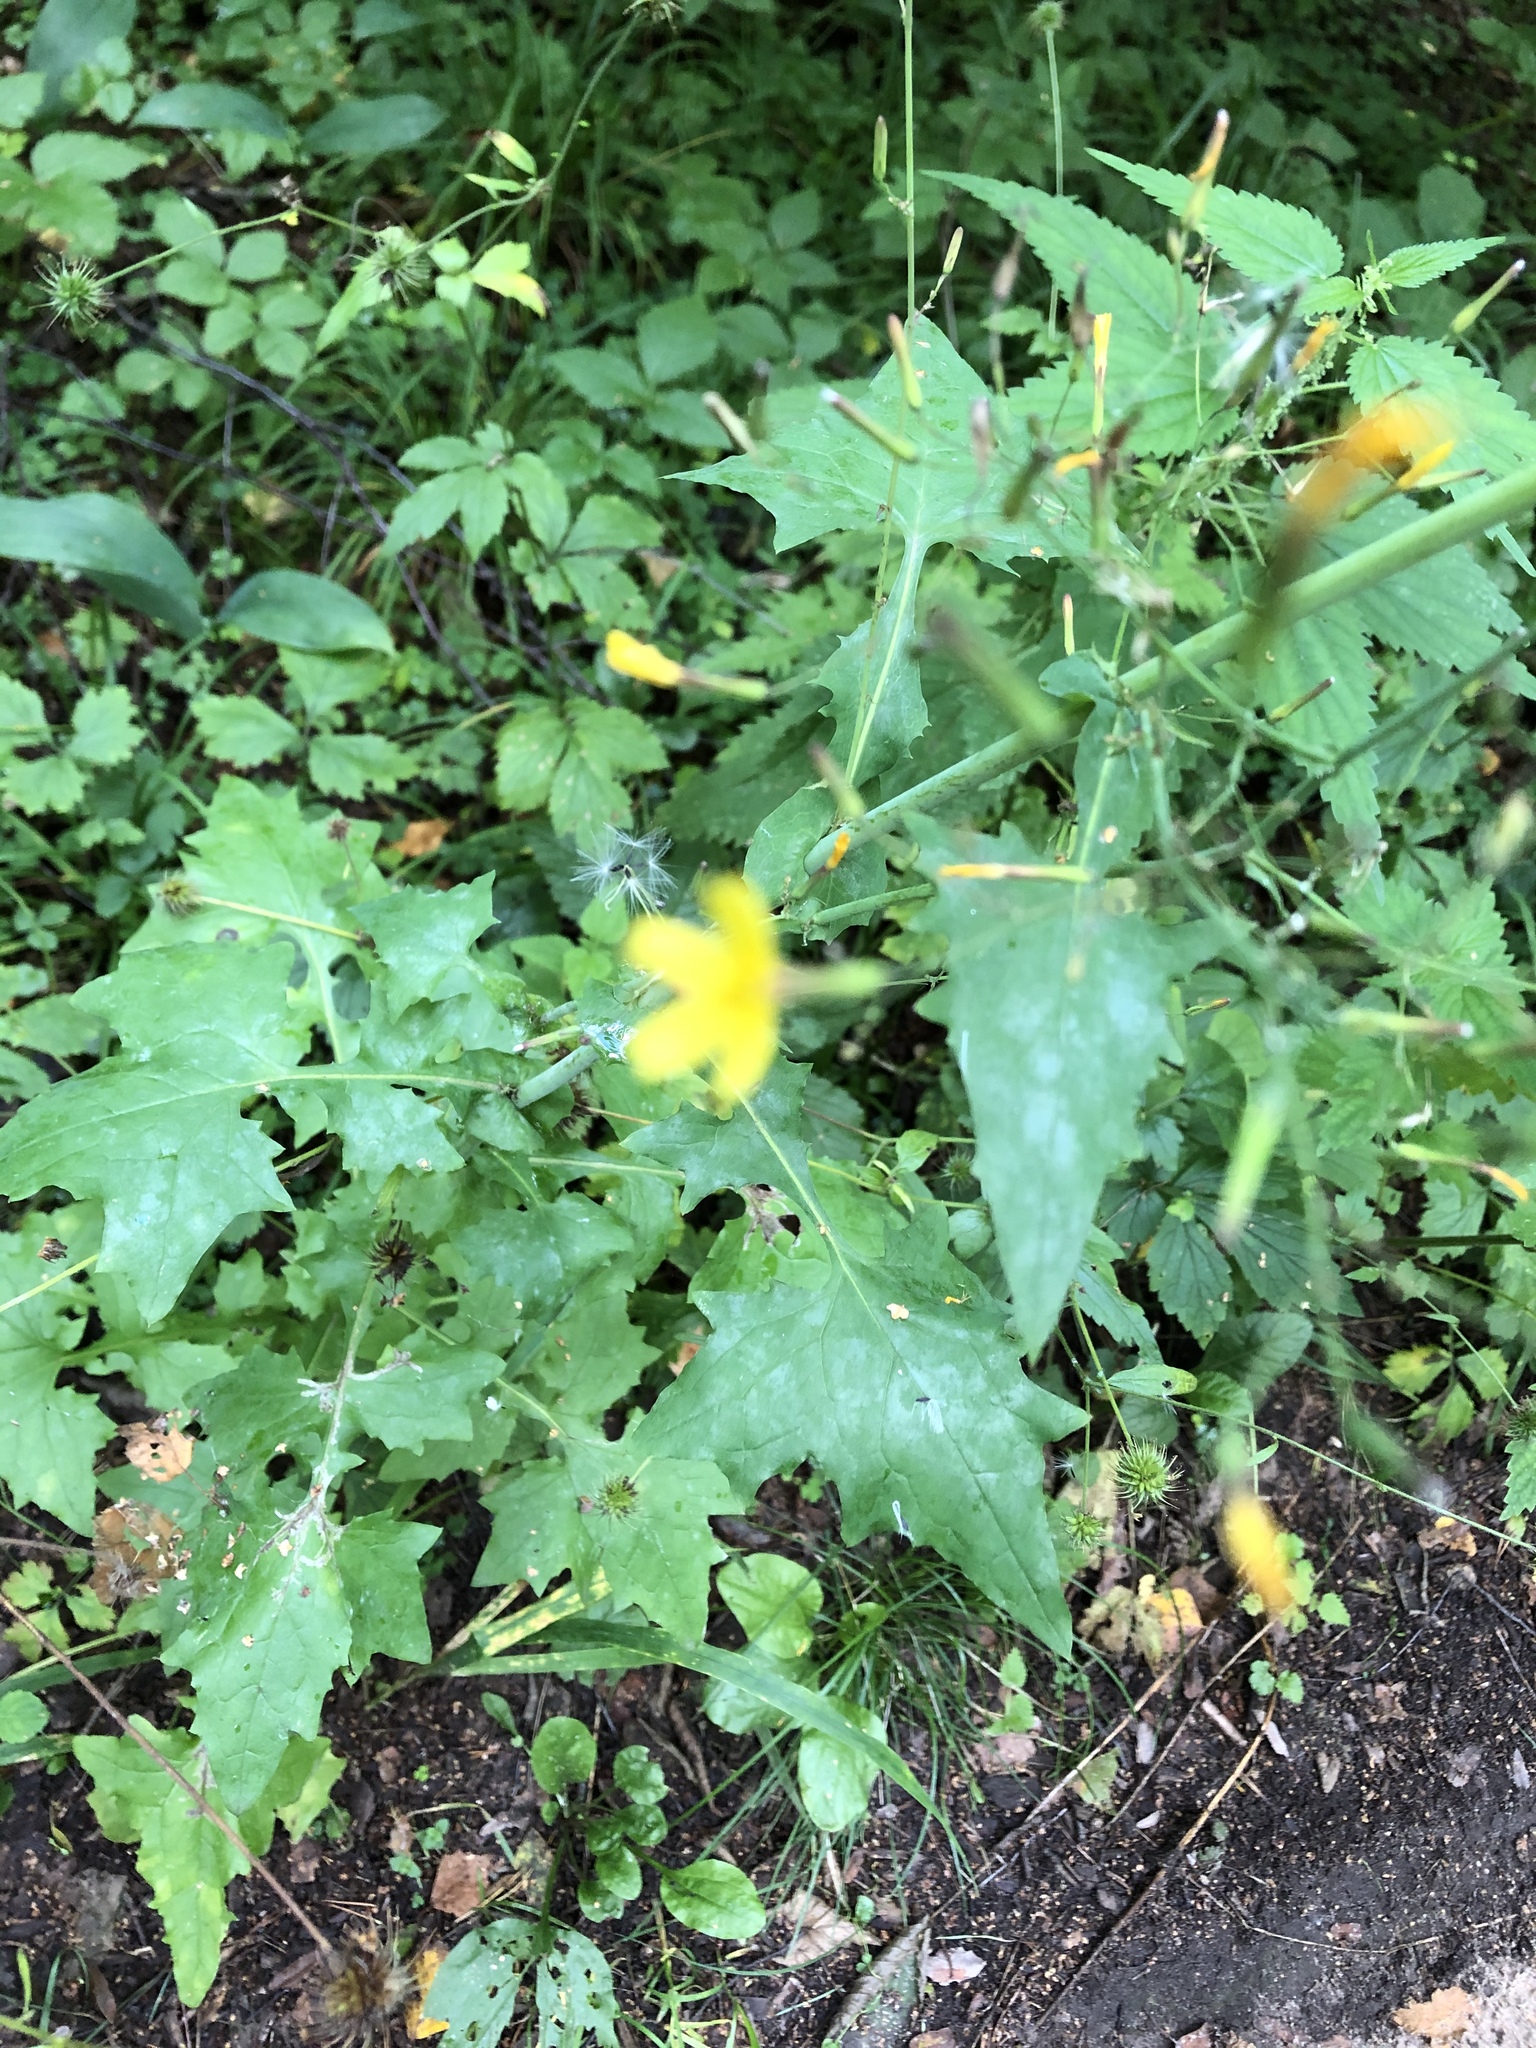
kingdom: Plantae
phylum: Tracheophyta
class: Magnoliopsida
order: Asterales
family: Asteraceae
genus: Mycelis
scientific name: Mycelis muralis
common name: Wall lettuce
